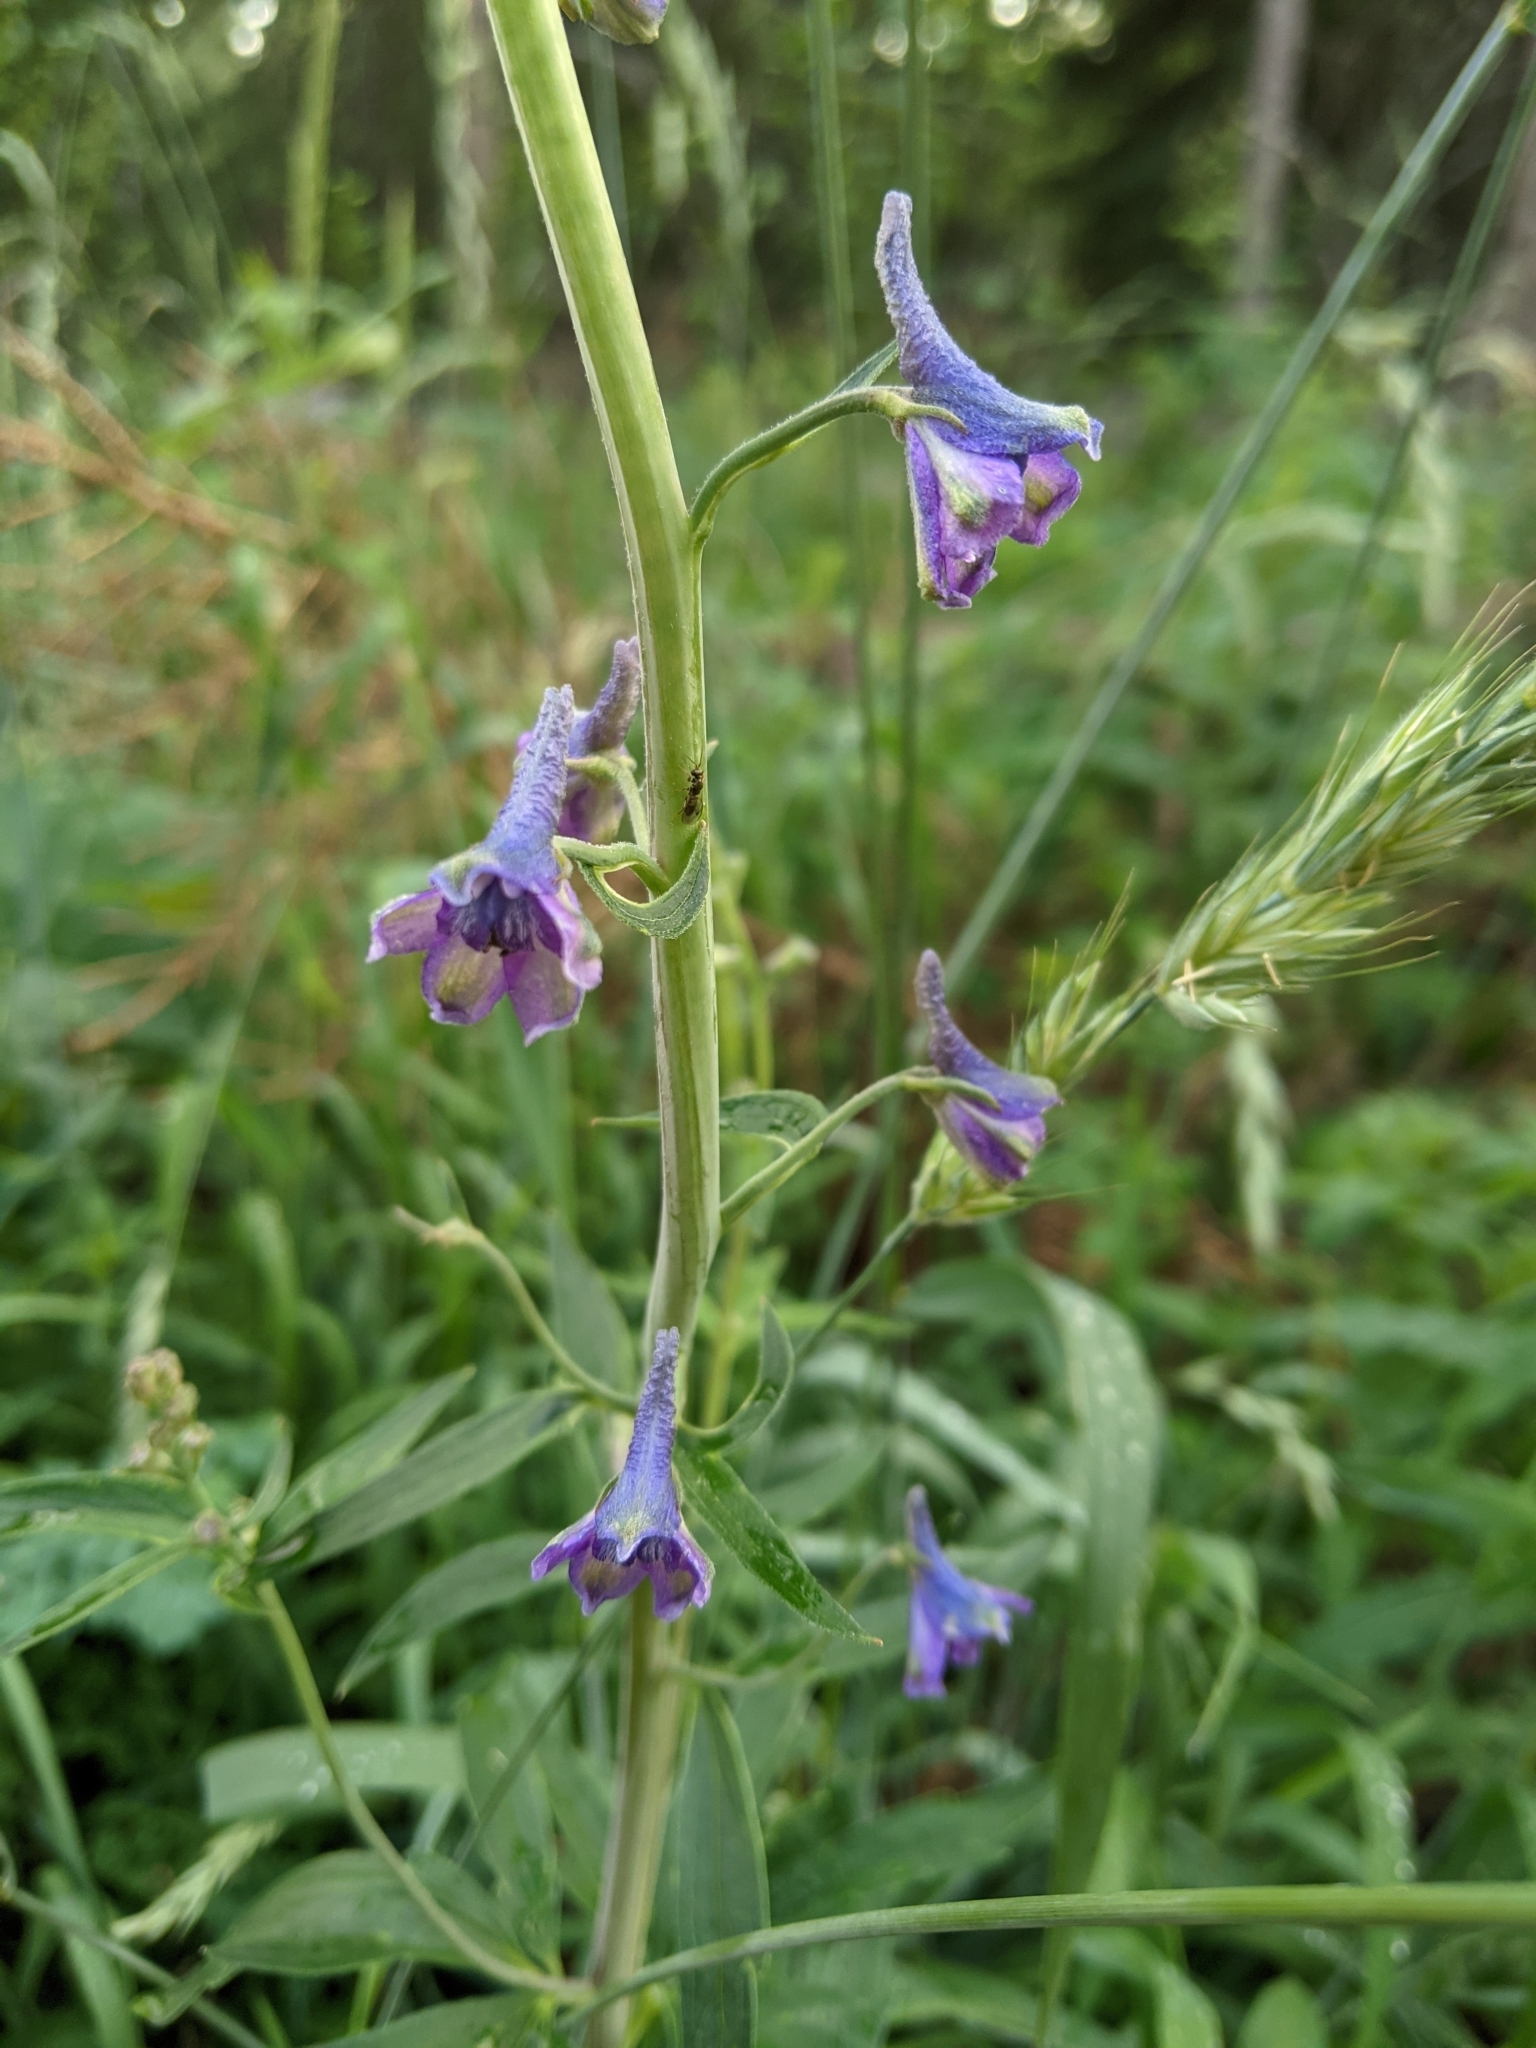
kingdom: Plantae
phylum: Tracheophyta
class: Magnoliopsida
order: Ranunculales
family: Ranunculaceae
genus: Delphinium
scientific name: Delphinium glaucum
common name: Brown's larkspur
